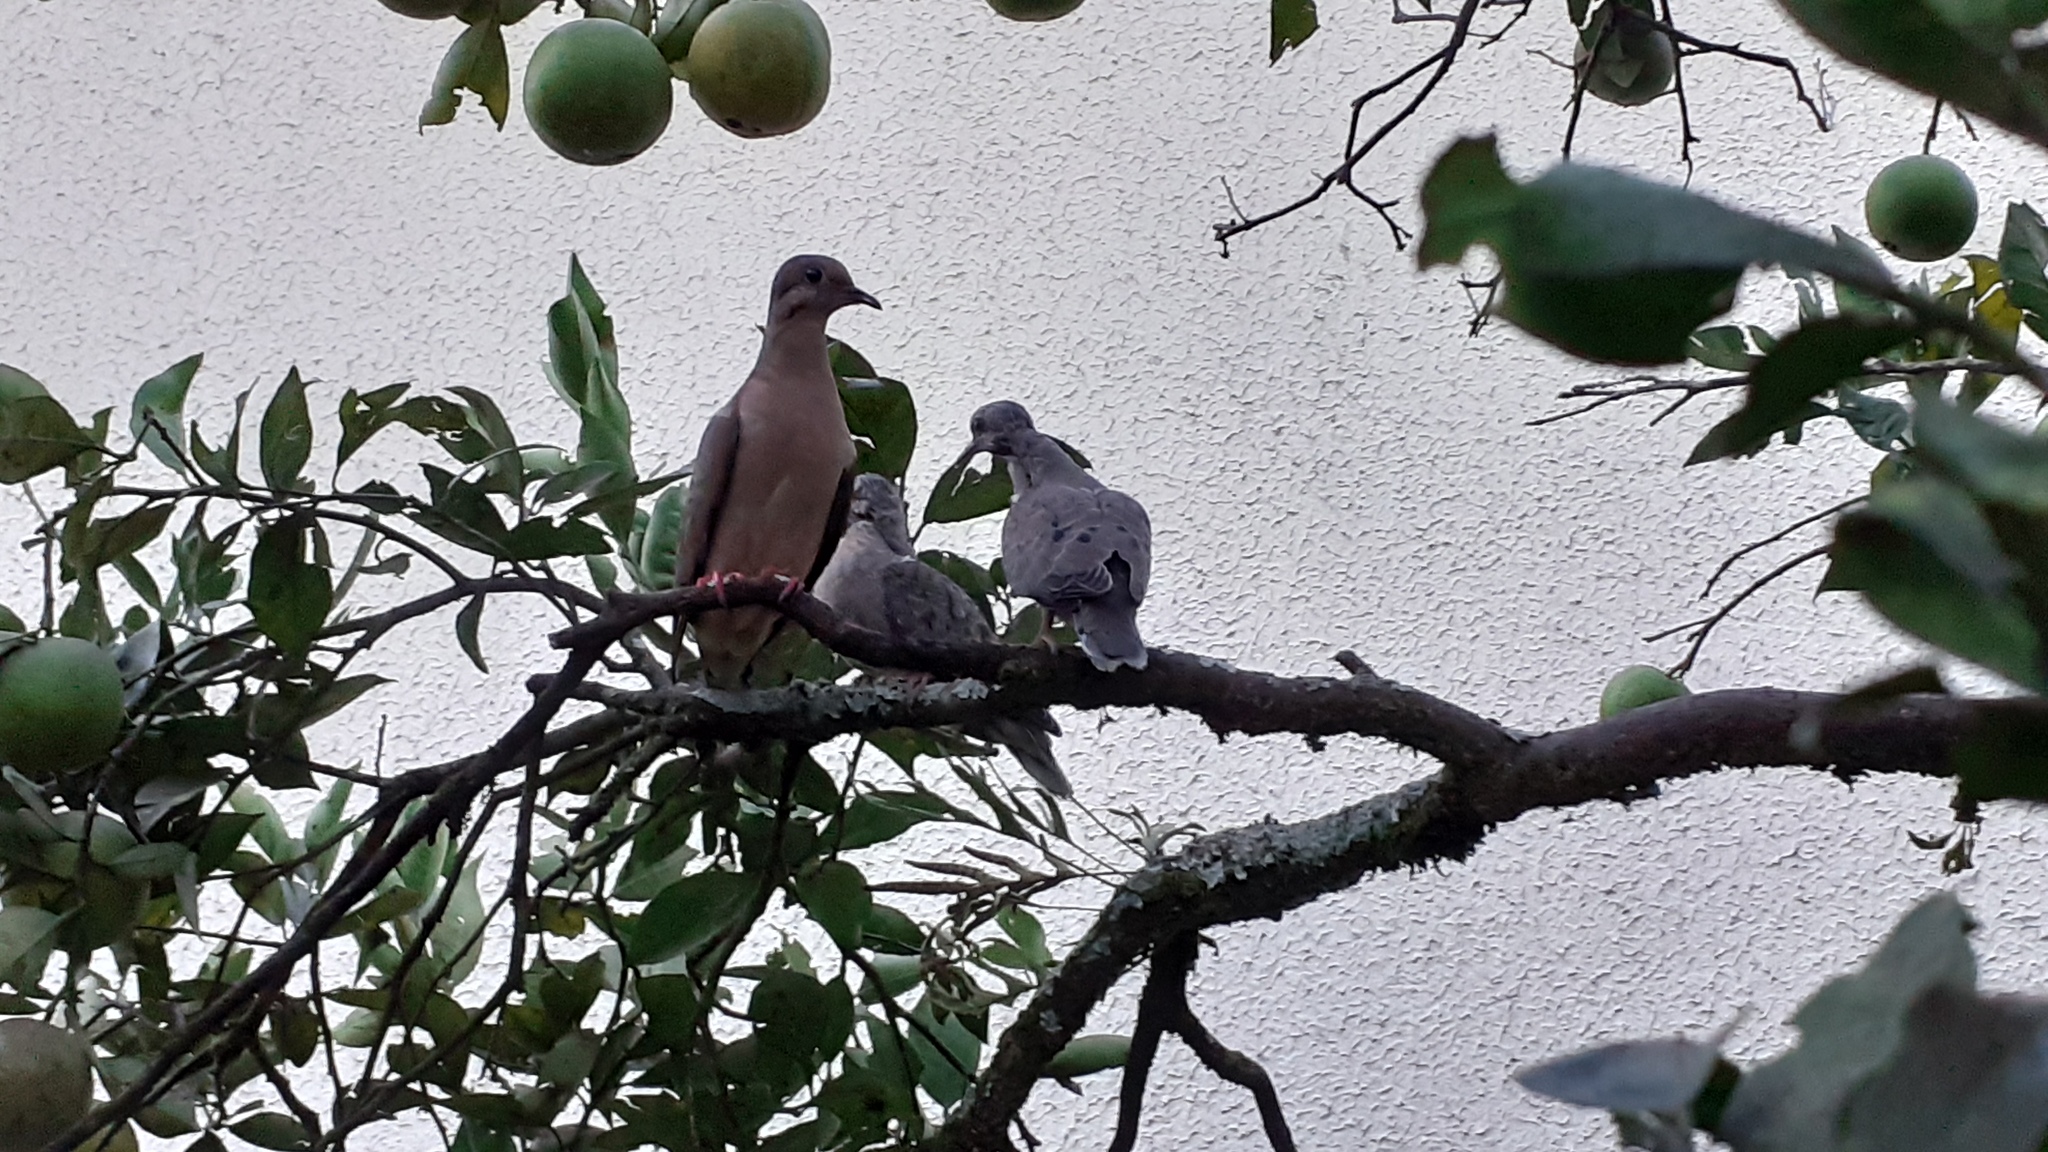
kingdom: Animalia
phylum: Chordata
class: Aves
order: Columbiformes
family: Columbidae
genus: Zenaida
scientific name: Zenaida auriculata
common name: Eared dove
